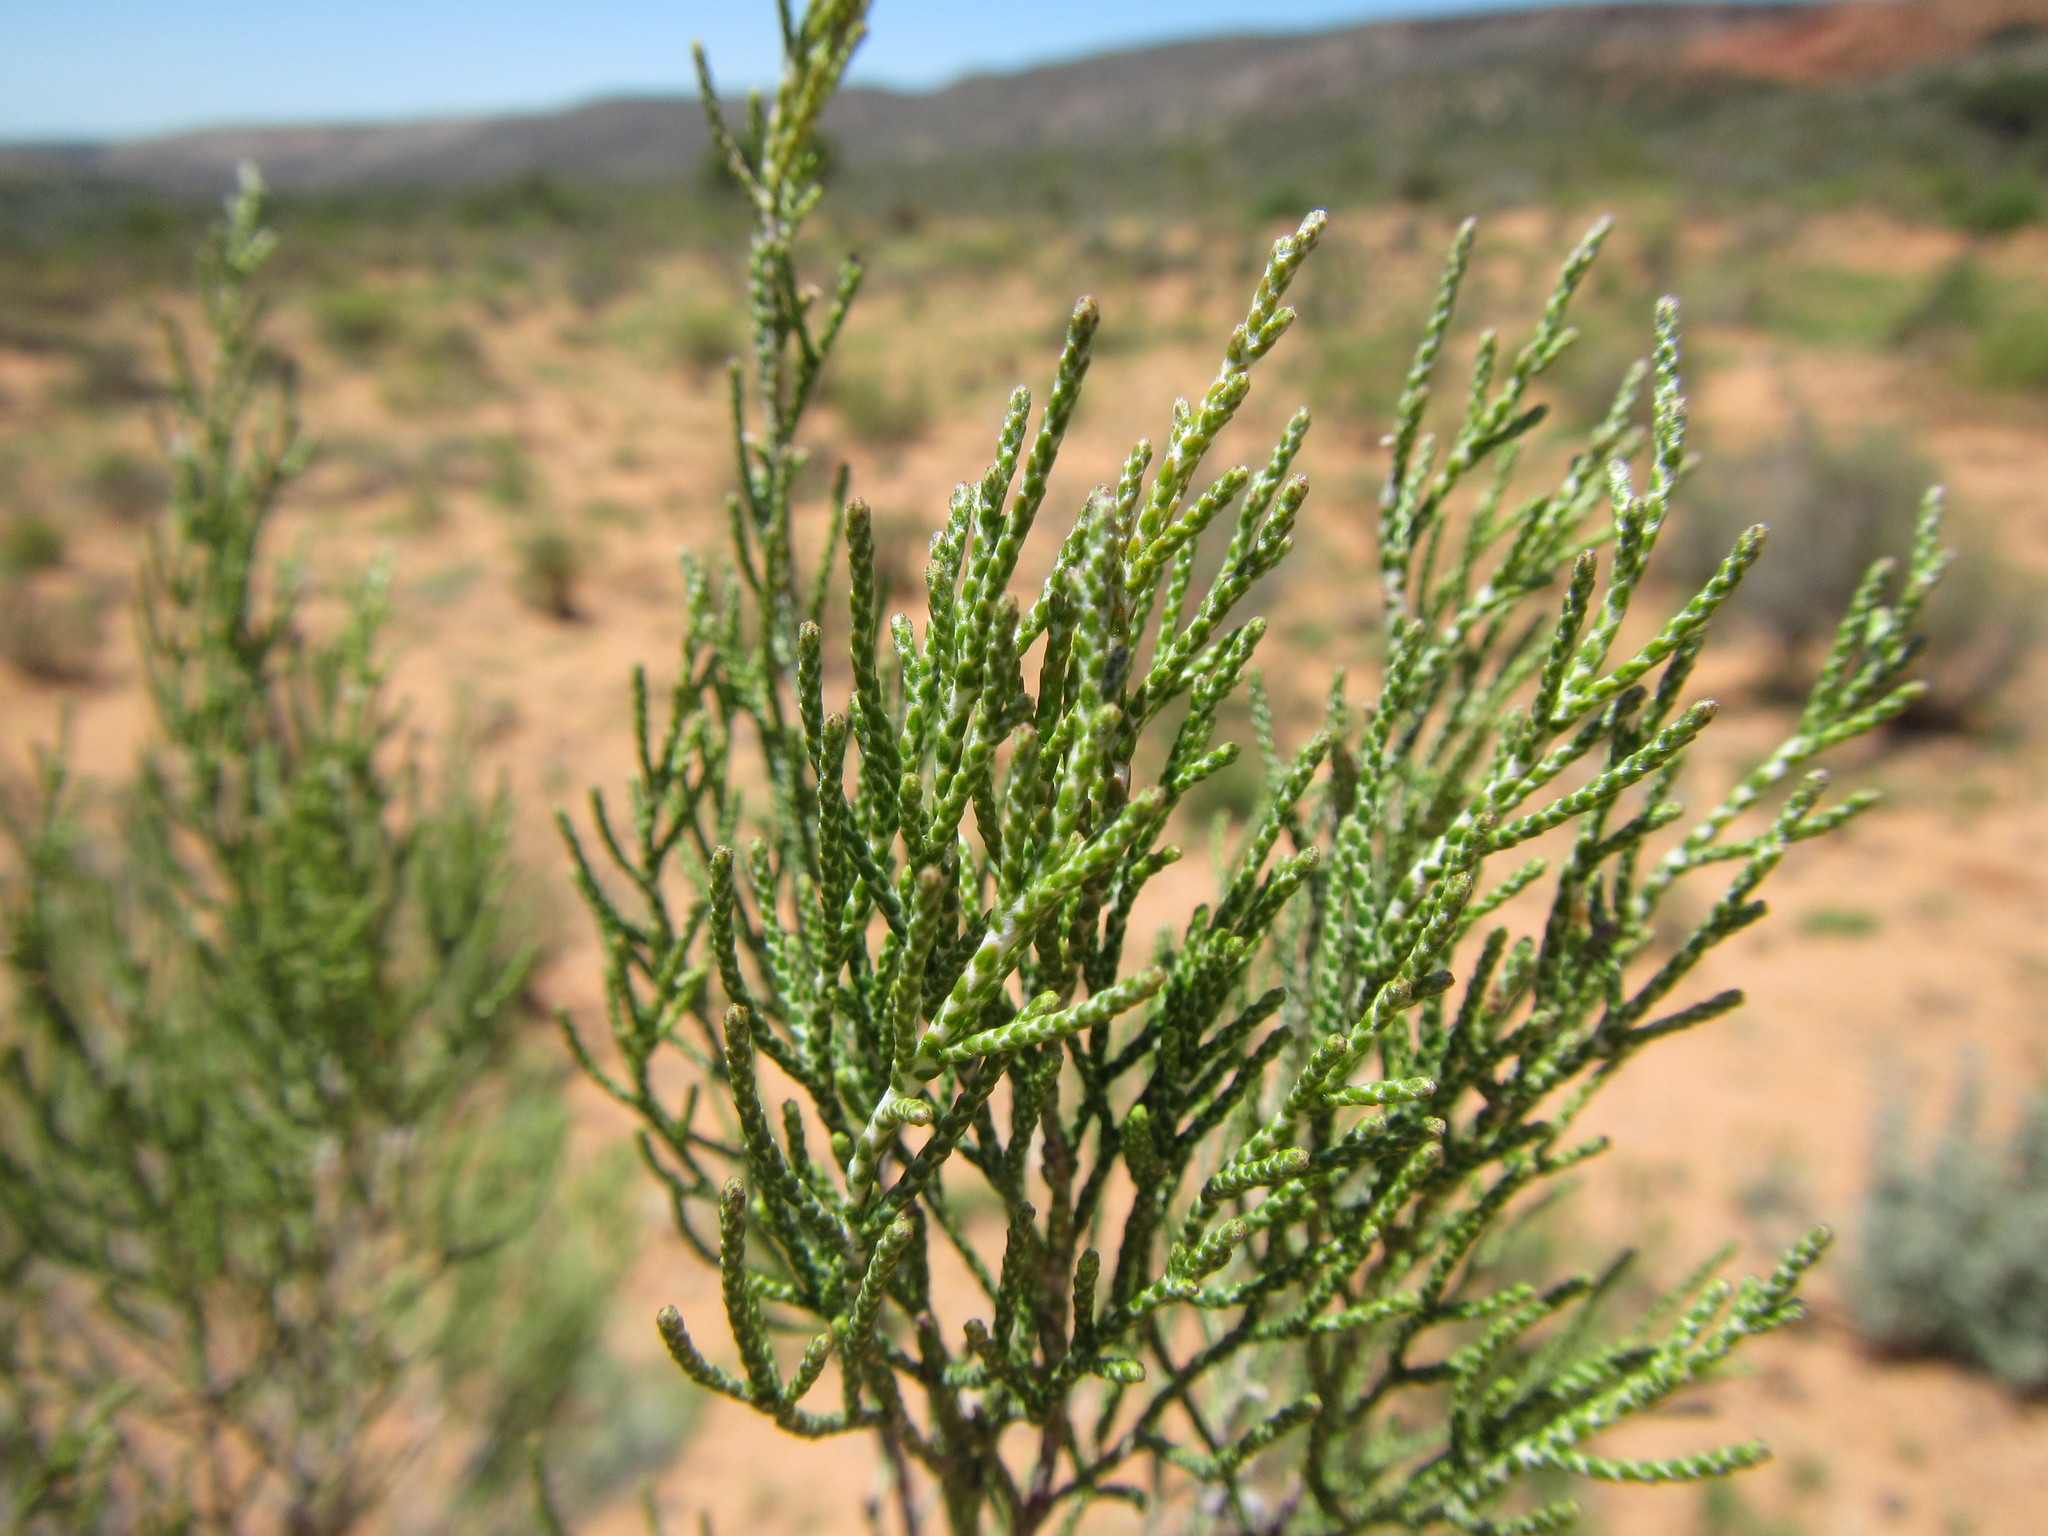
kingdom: Plantae
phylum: Tracheophyta
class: Magnoliopsida
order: Asterales
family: Asteraceae
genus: Dicerothamnus
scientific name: Dicerothamnus rhinocerotis
